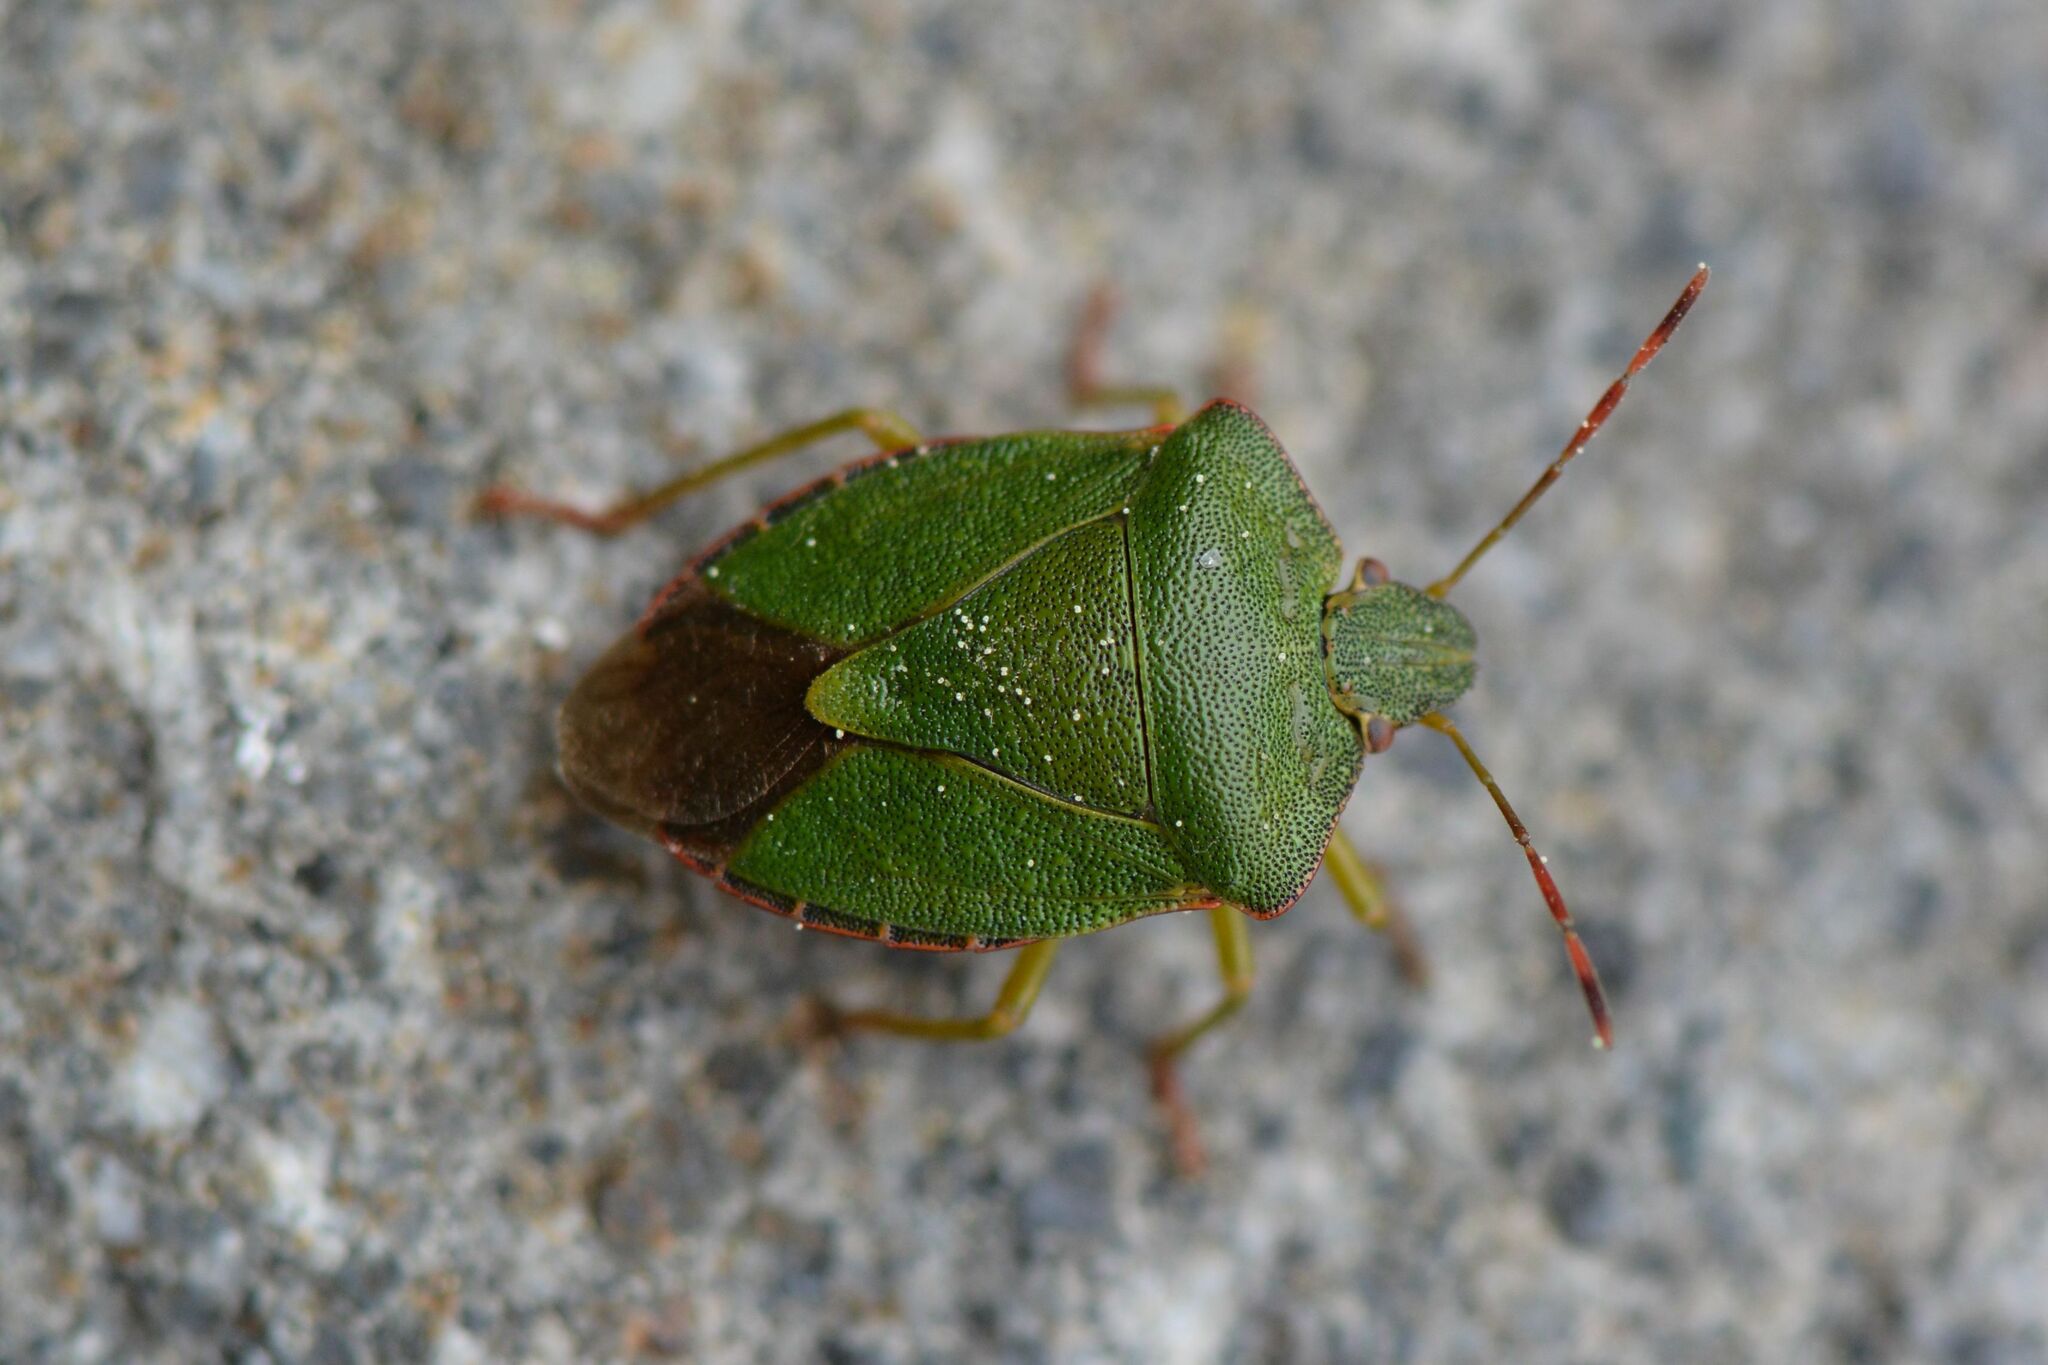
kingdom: Animalia
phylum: Arthropoda
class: Insecta
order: Hemiptera
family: Pentatomidae
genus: Palomena
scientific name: Palomena prasina
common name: Green shieldbug
